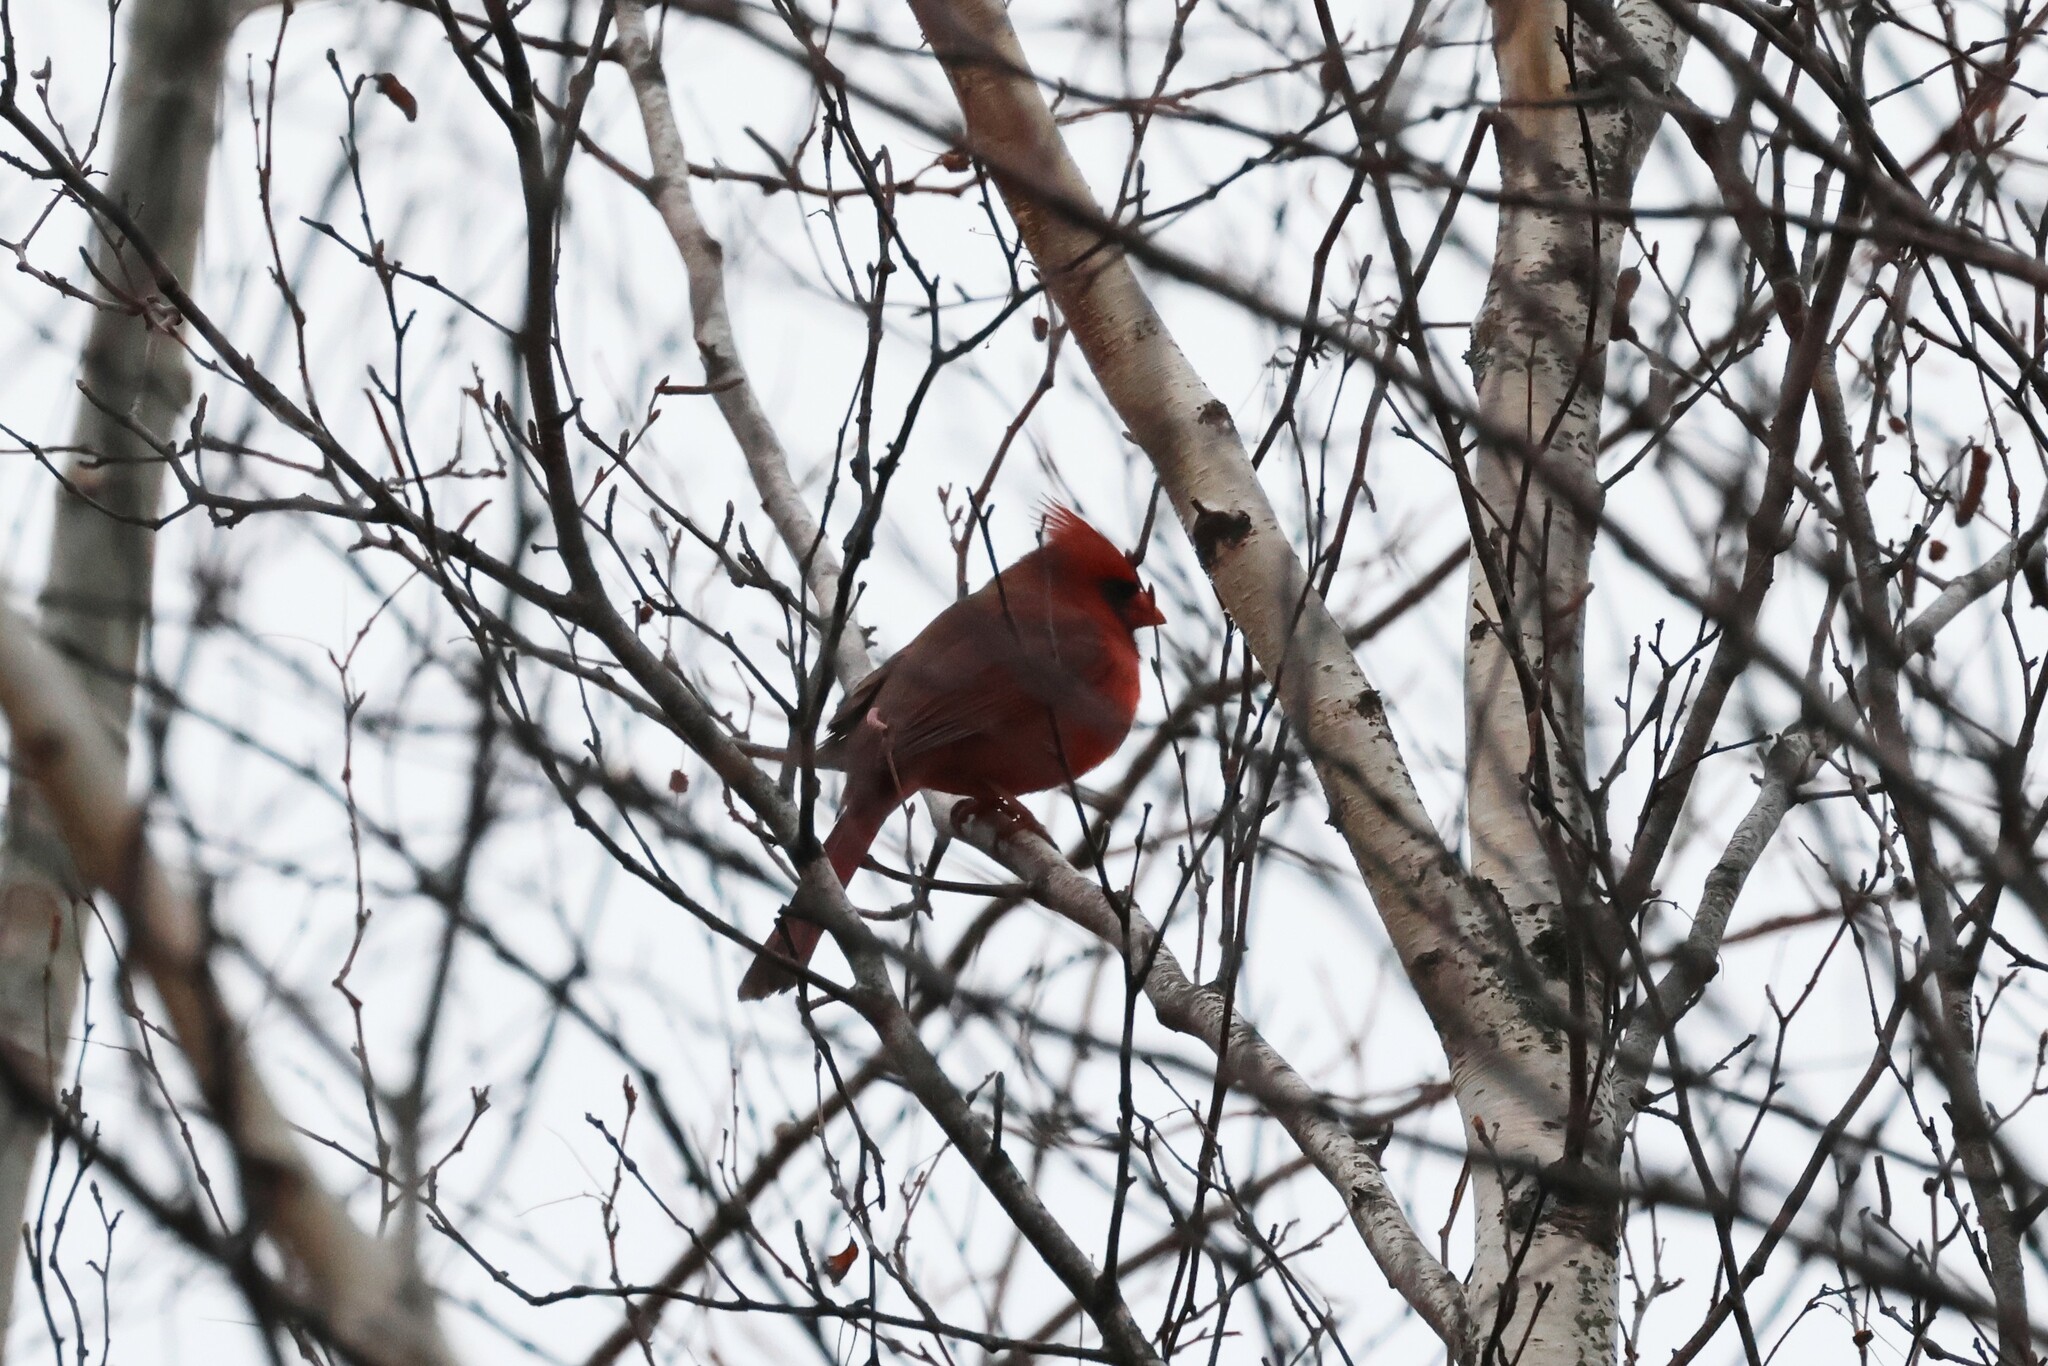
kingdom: Animalia
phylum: Chordata
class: Aves
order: Passeriformes
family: Cardinalidae
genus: Cardinalis
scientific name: Cardinalis cardinalis
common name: Northern cardinal
